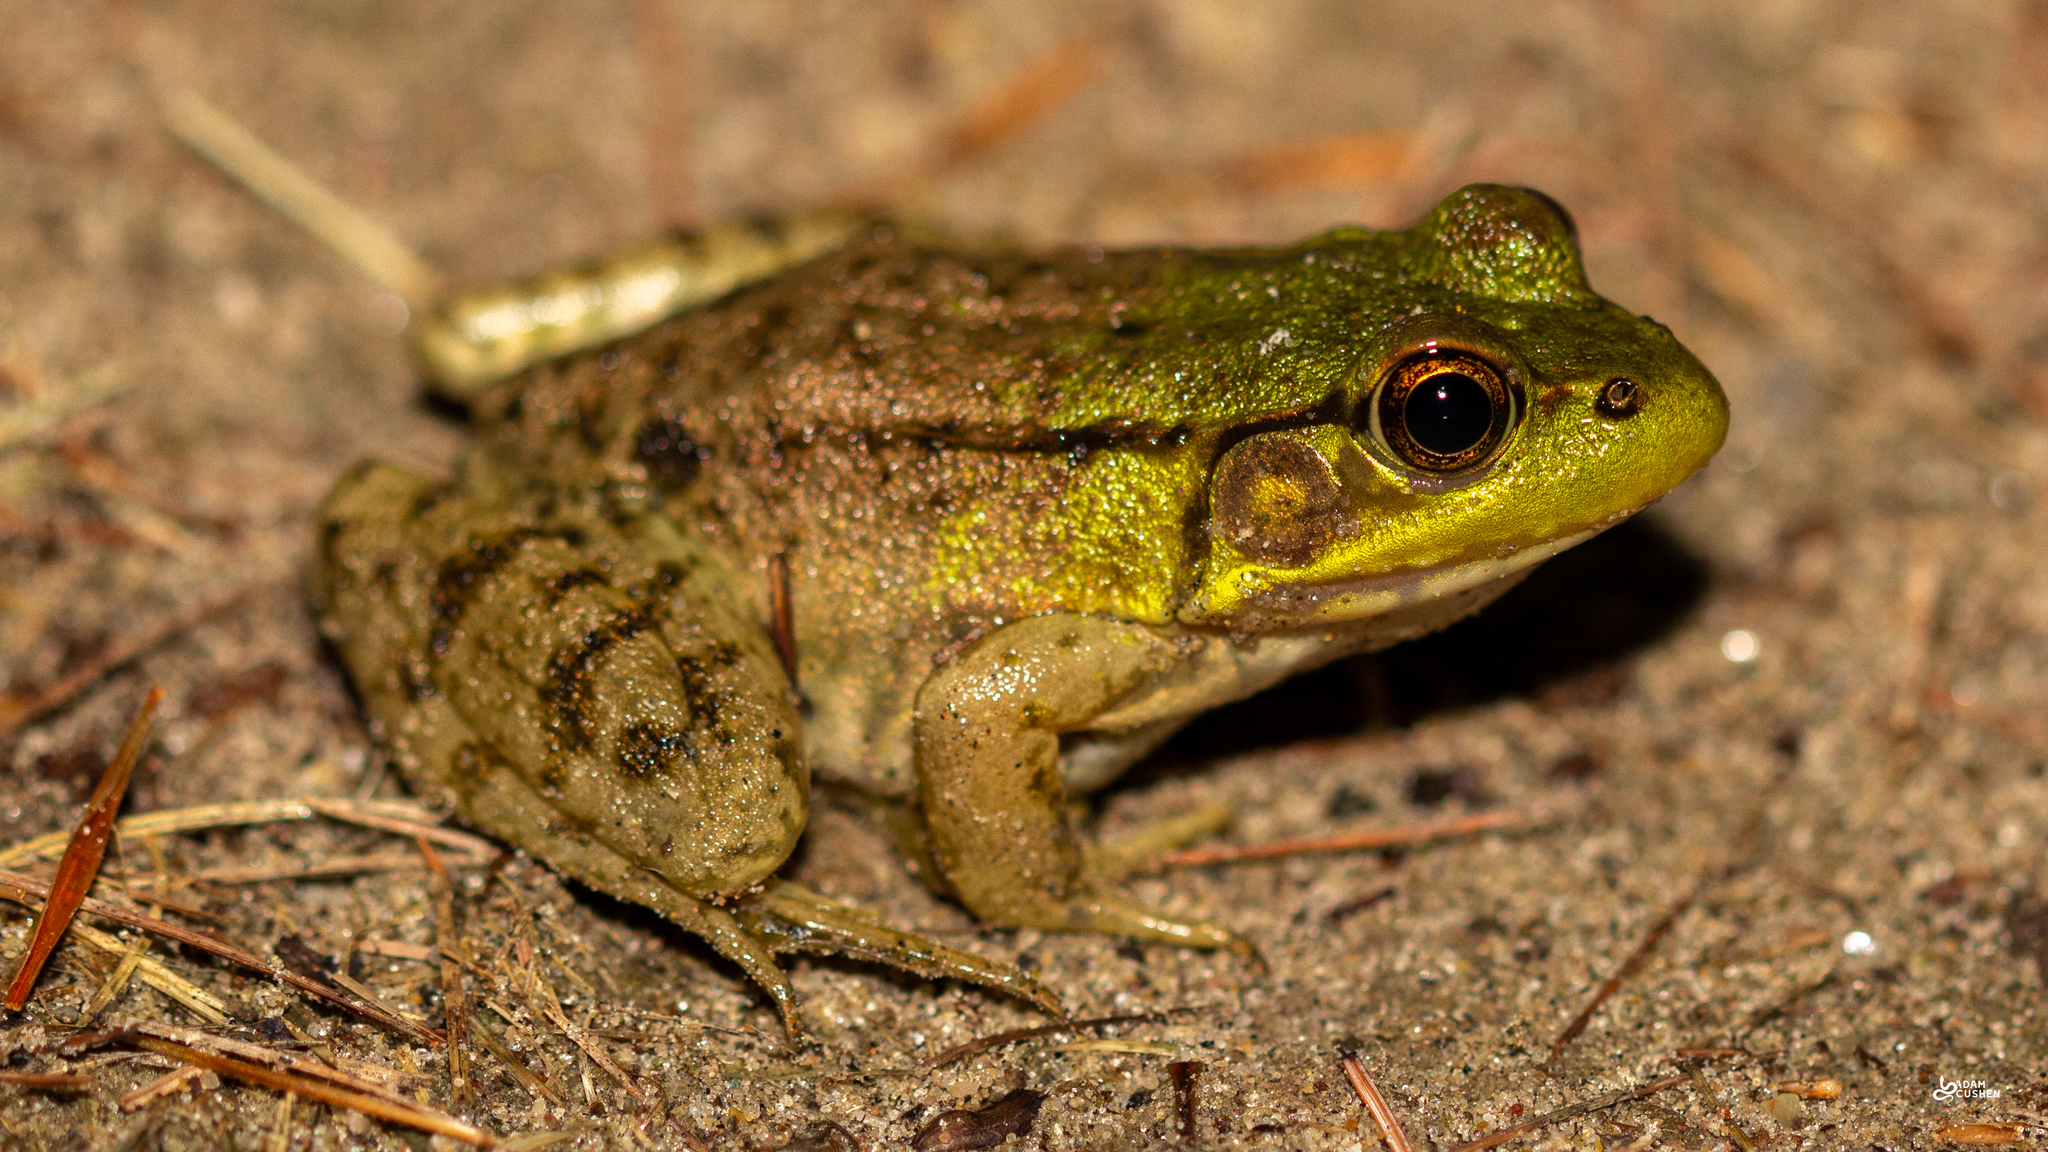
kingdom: Animalia
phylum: Chordata
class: Amphibia
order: Anura
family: Ranidae
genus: Lithobates
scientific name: Lithobates clamitans
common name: Green frog
